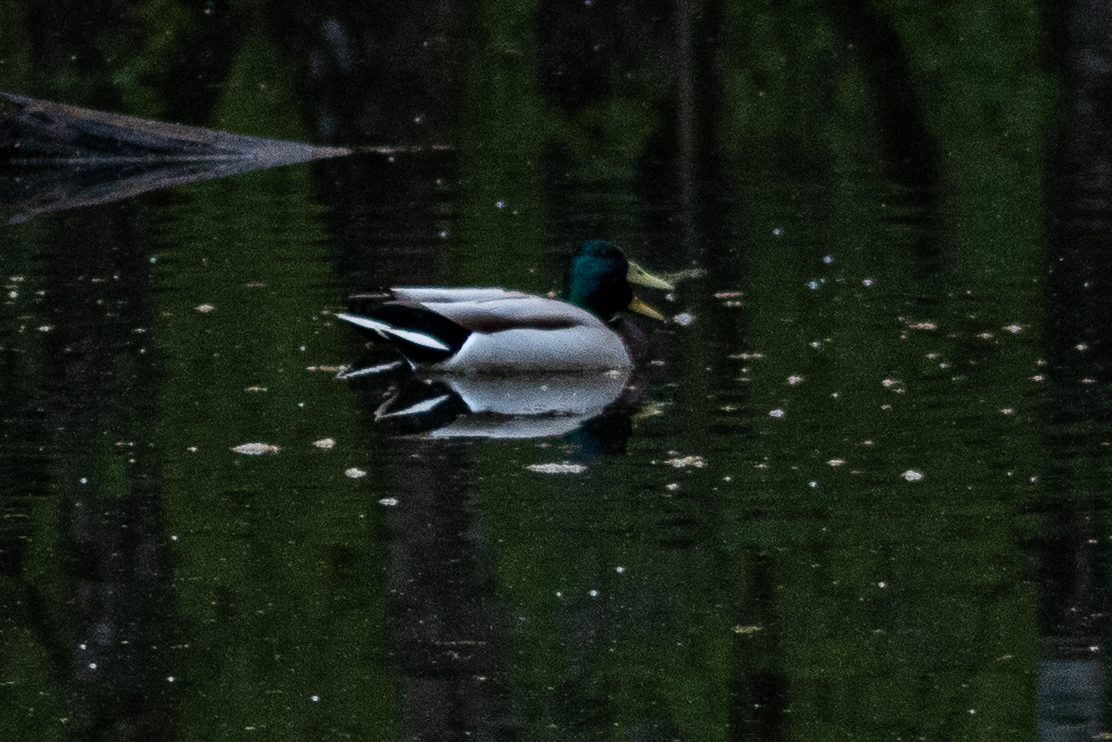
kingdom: Animalia
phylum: Chordata
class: Aves
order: Anseriformes
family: Anatidae
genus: Anas
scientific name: Anas platyrhynchos
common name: Mallard
